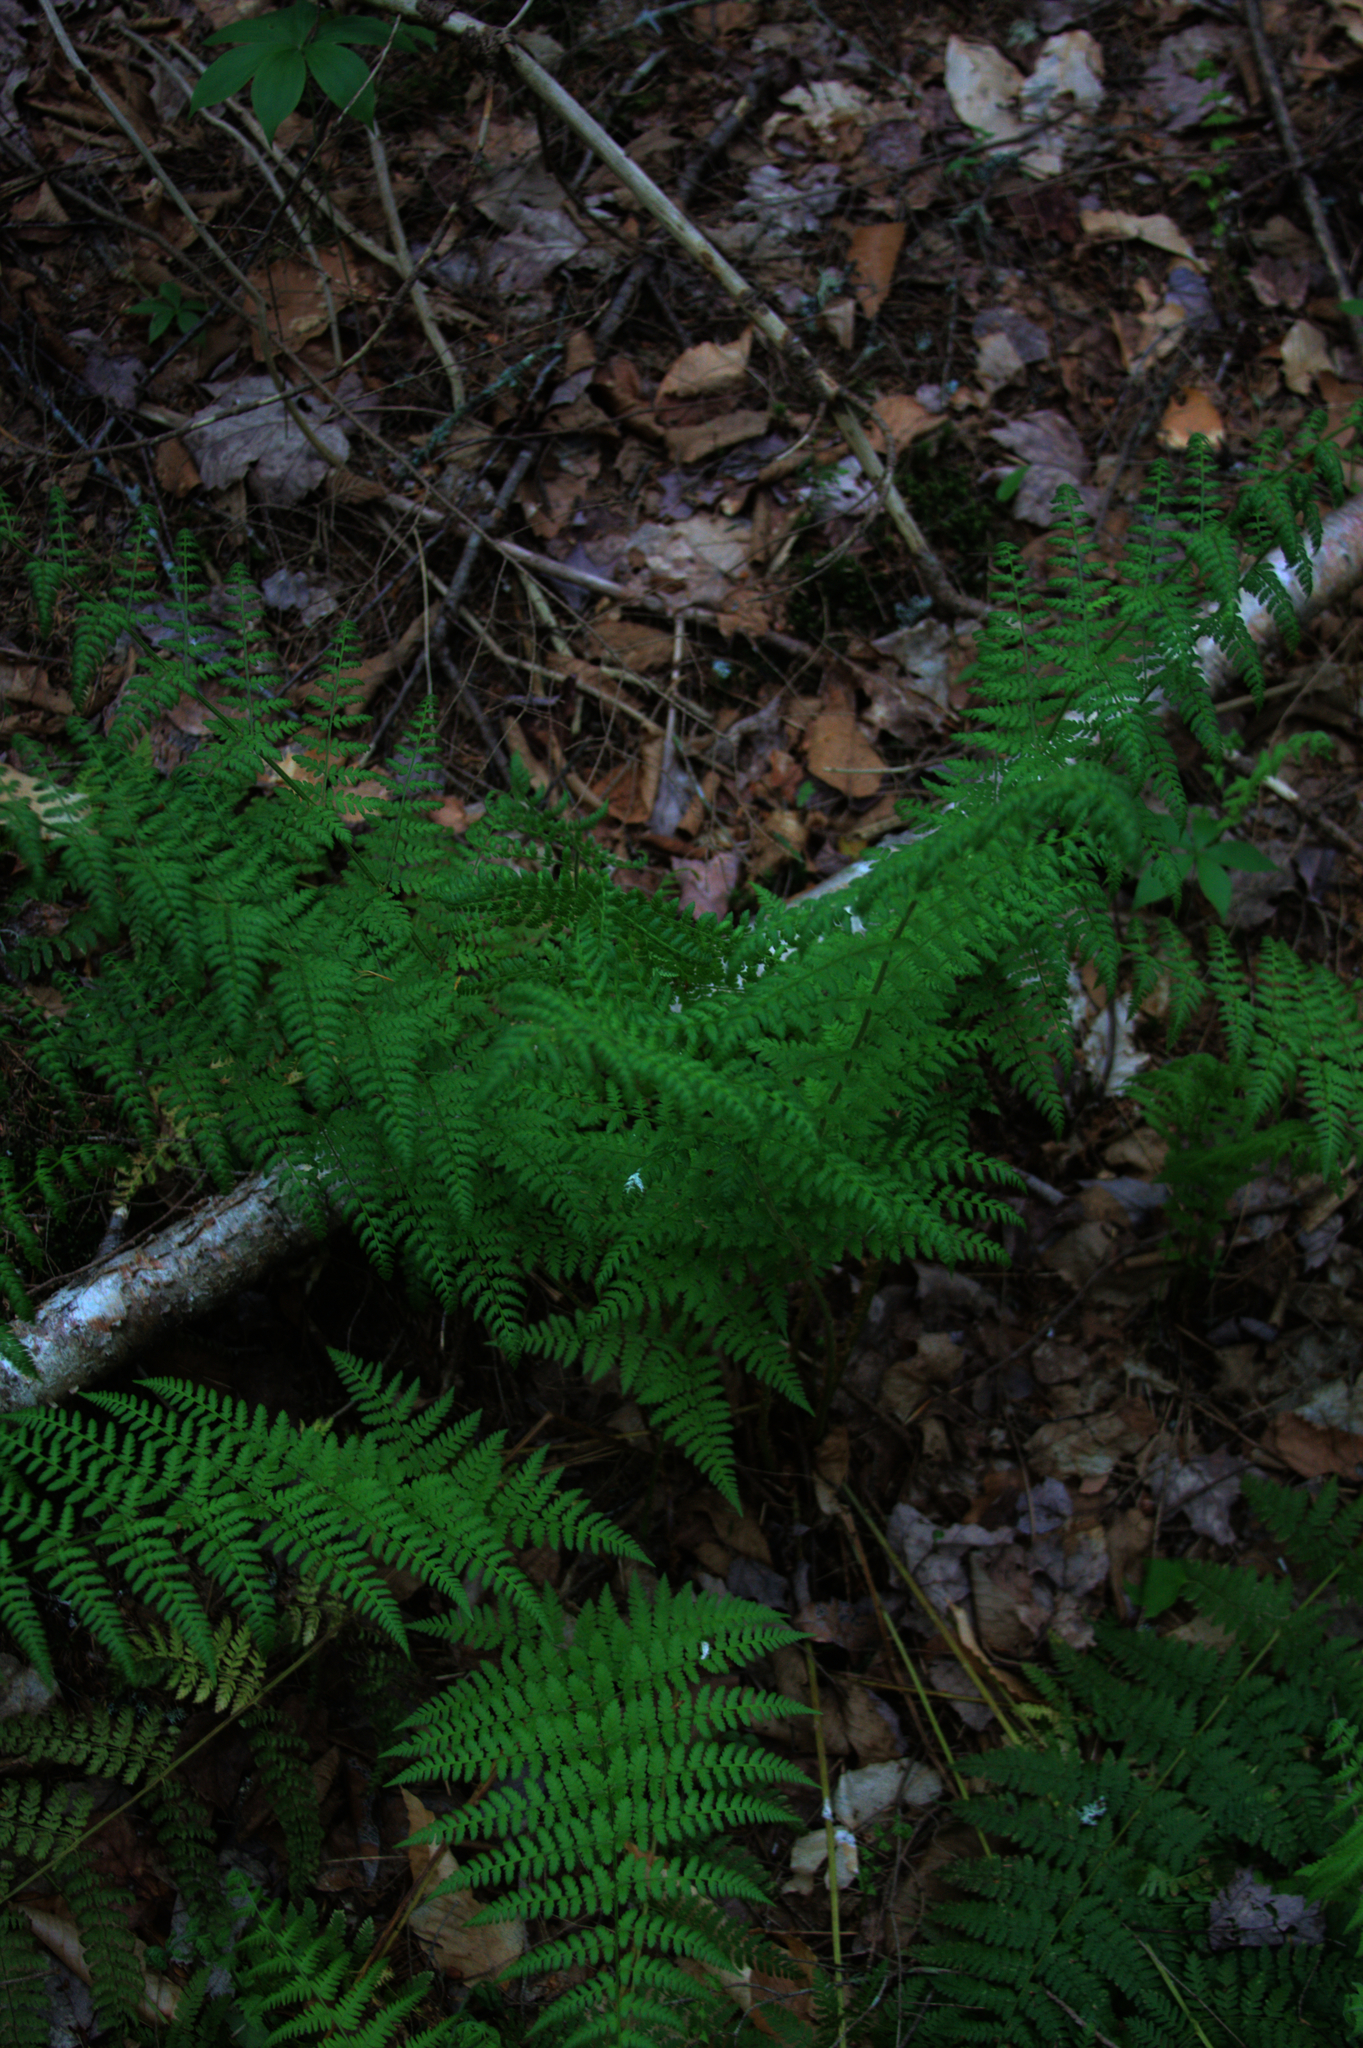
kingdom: Plantae
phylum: Tracheophyta
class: Polypodiopsida
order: Polypodiales
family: Dryopteridaceae
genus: Dryopteris
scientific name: Dryopteris intermedia
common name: Evergreen wood fern
